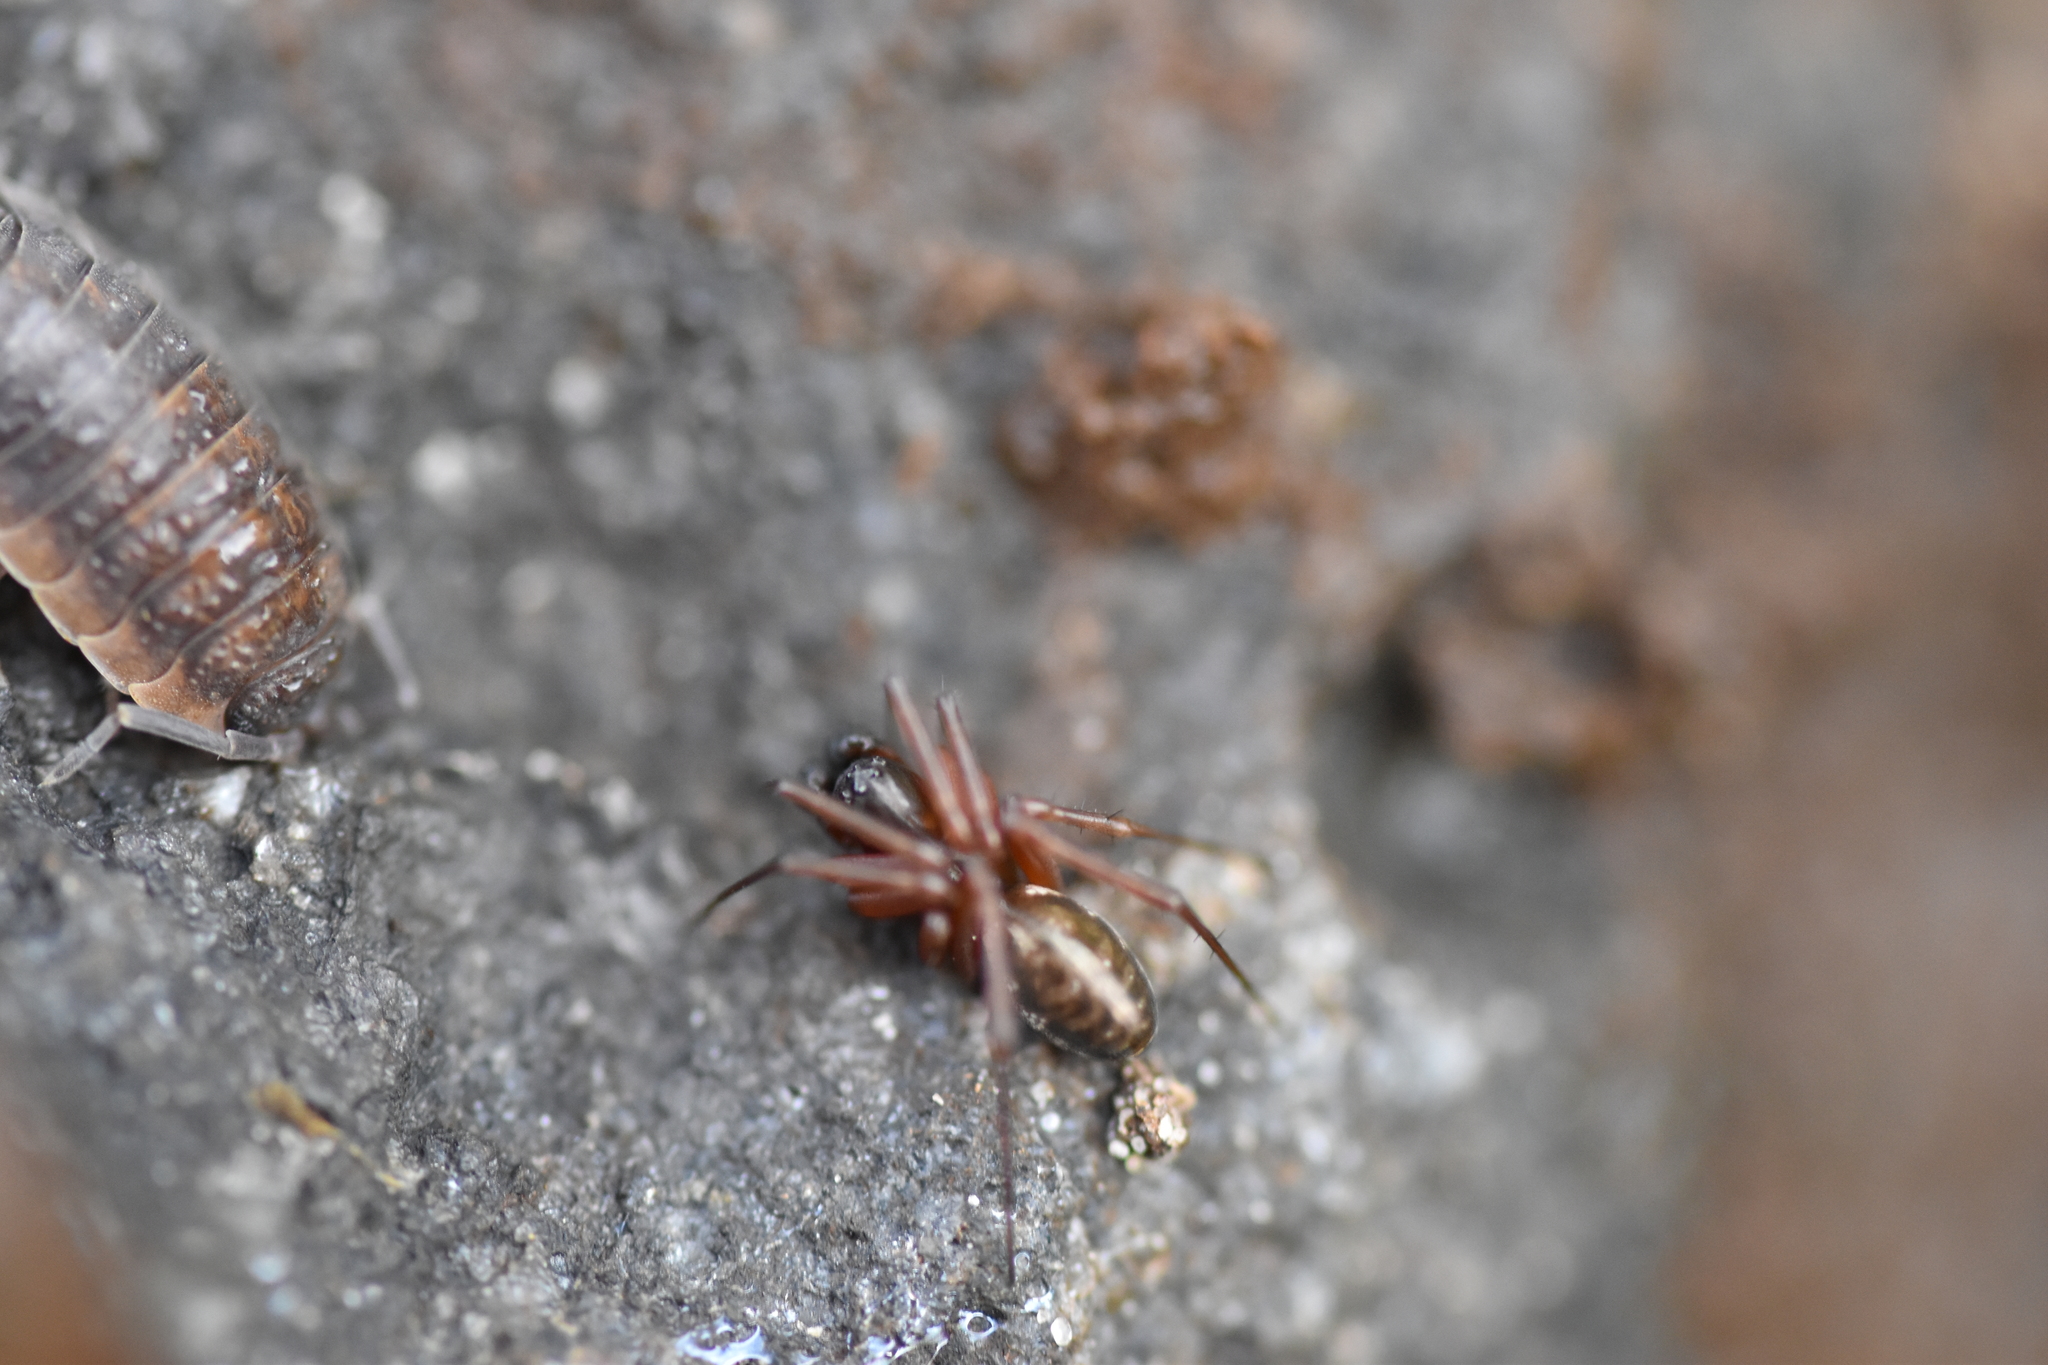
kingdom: Animalia
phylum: Arthropoda
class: Arachnida
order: Araneae
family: Linyphiidae
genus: Neriene
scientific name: Neriene clathrata
